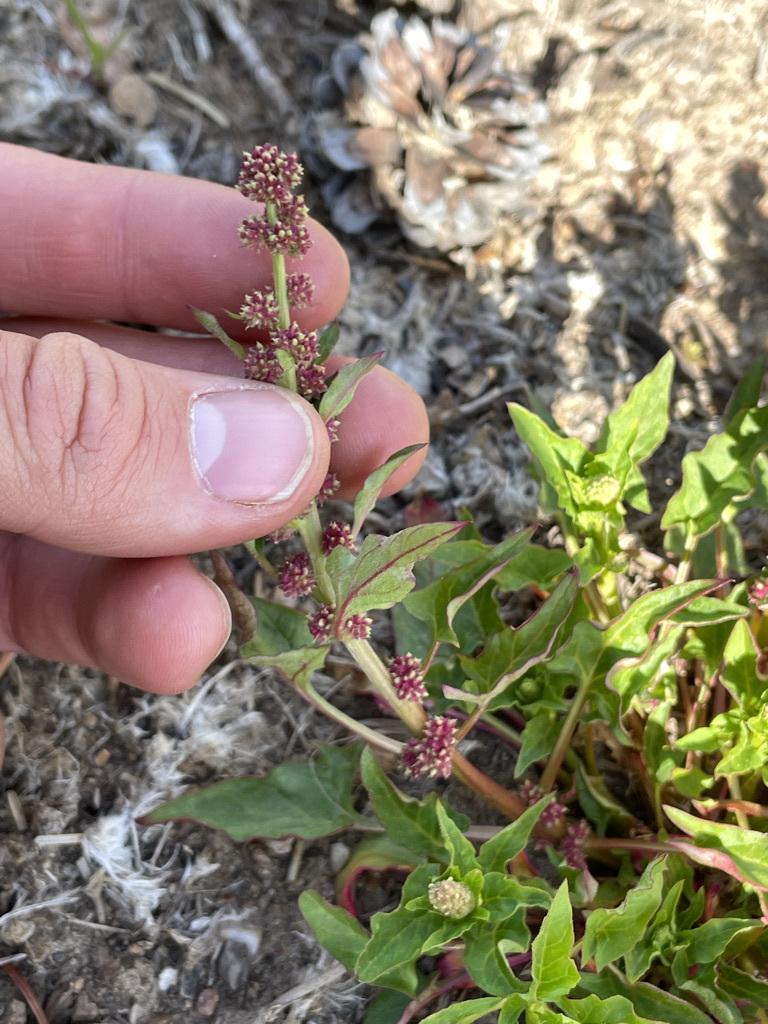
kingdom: Plantae
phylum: Tracheophyta
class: Magnoliopsida
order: Caryophyllales
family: Amaranthaceae
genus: Blitum
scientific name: Blitum capitatum
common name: Strawberry-blight
